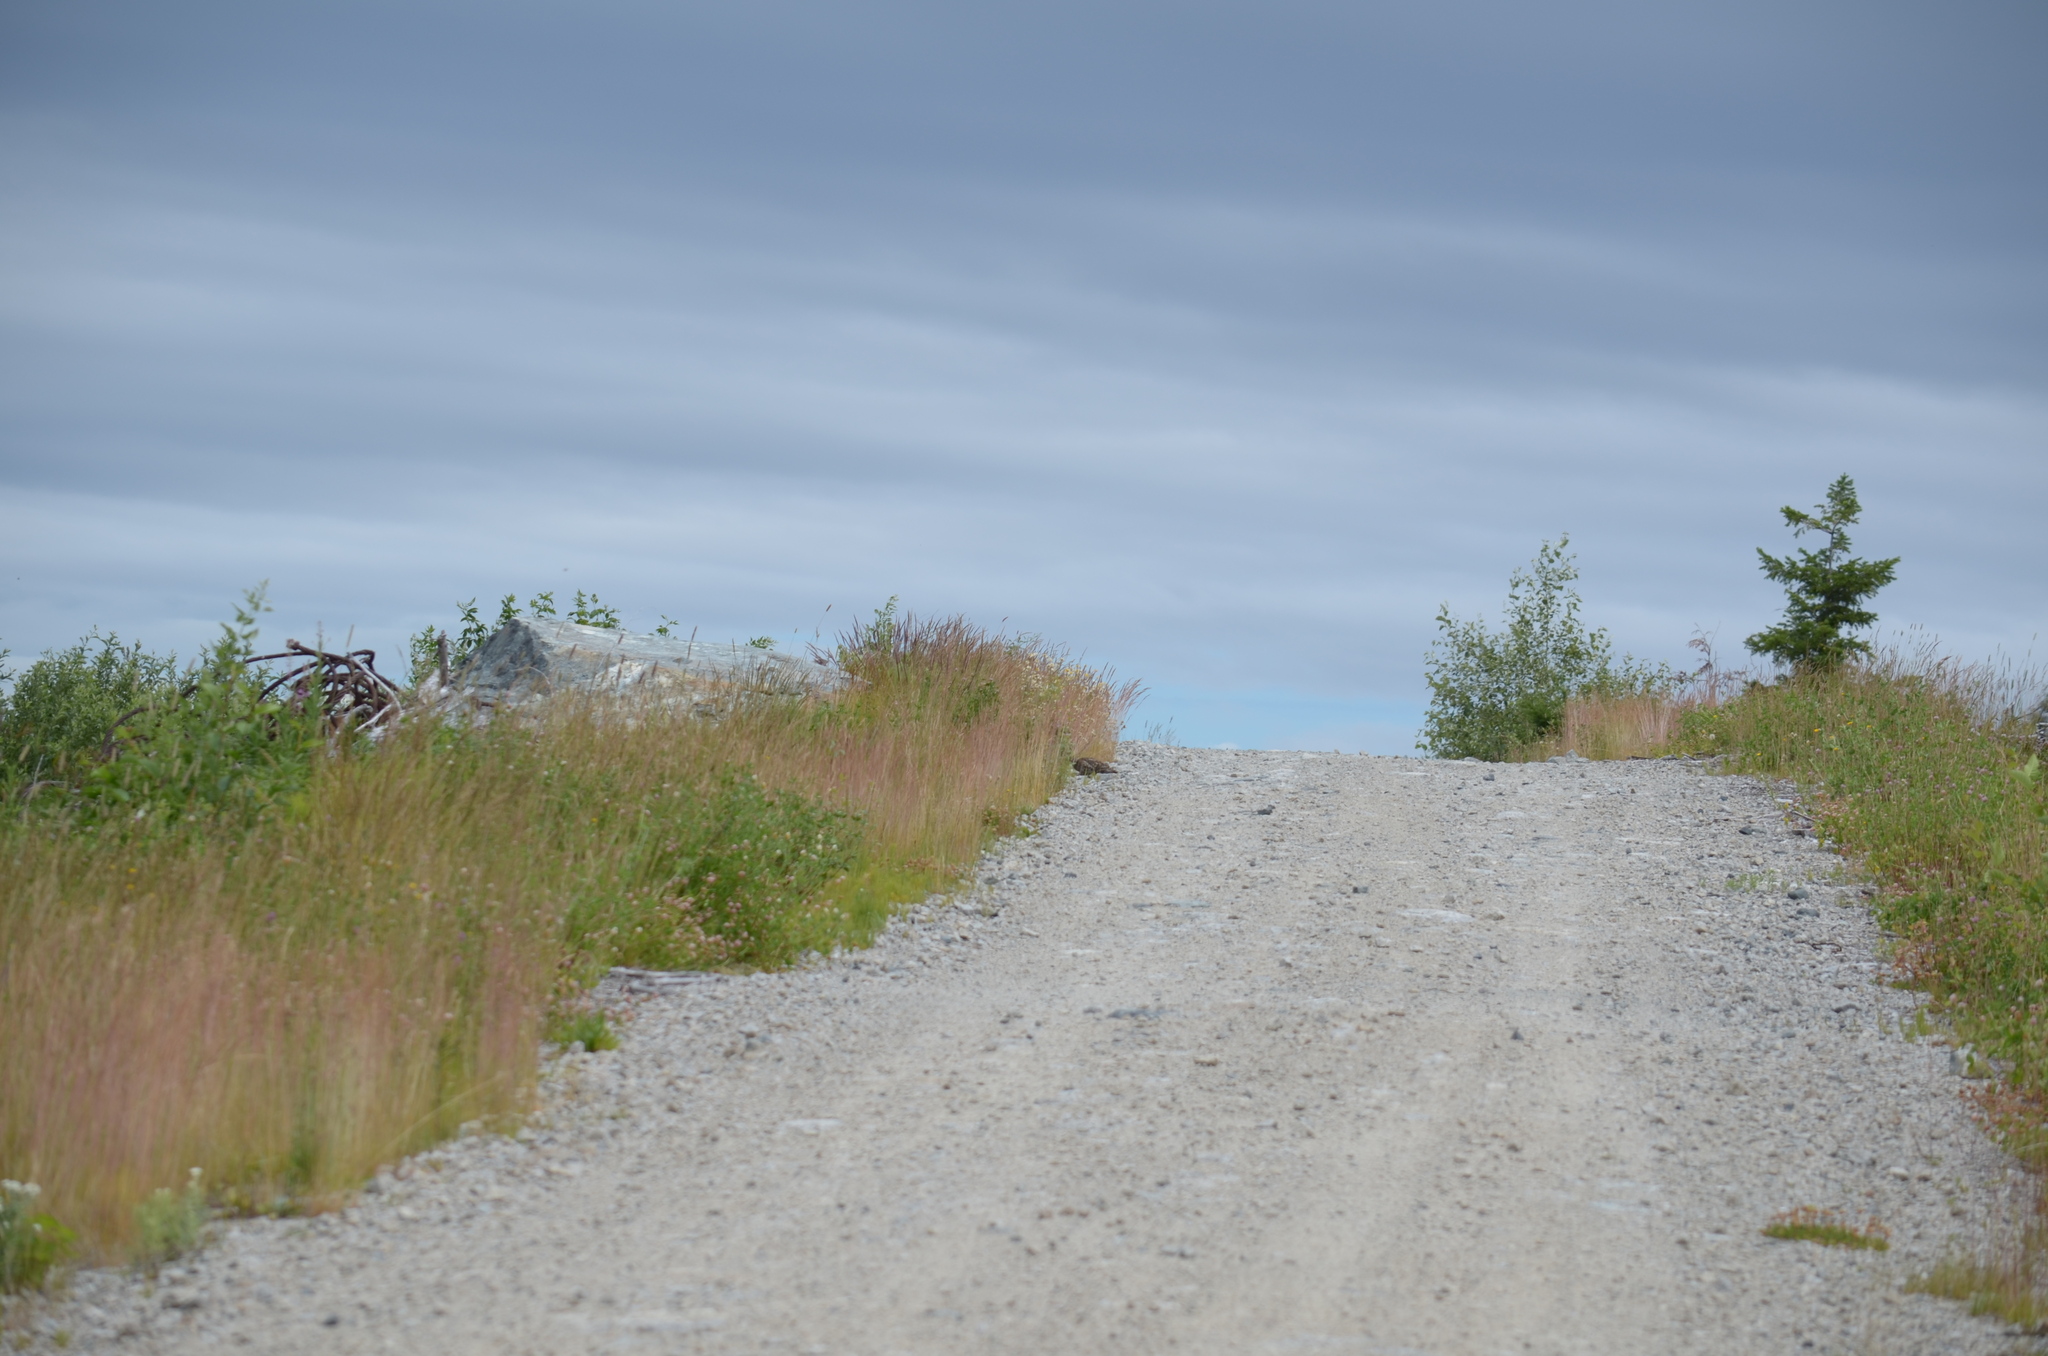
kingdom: Animalia
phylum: Chordata
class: Aves
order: Galliformes
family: Phasianidae
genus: Dendragapus
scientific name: Dendragapus fuliginosus
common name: Sooty grouse
